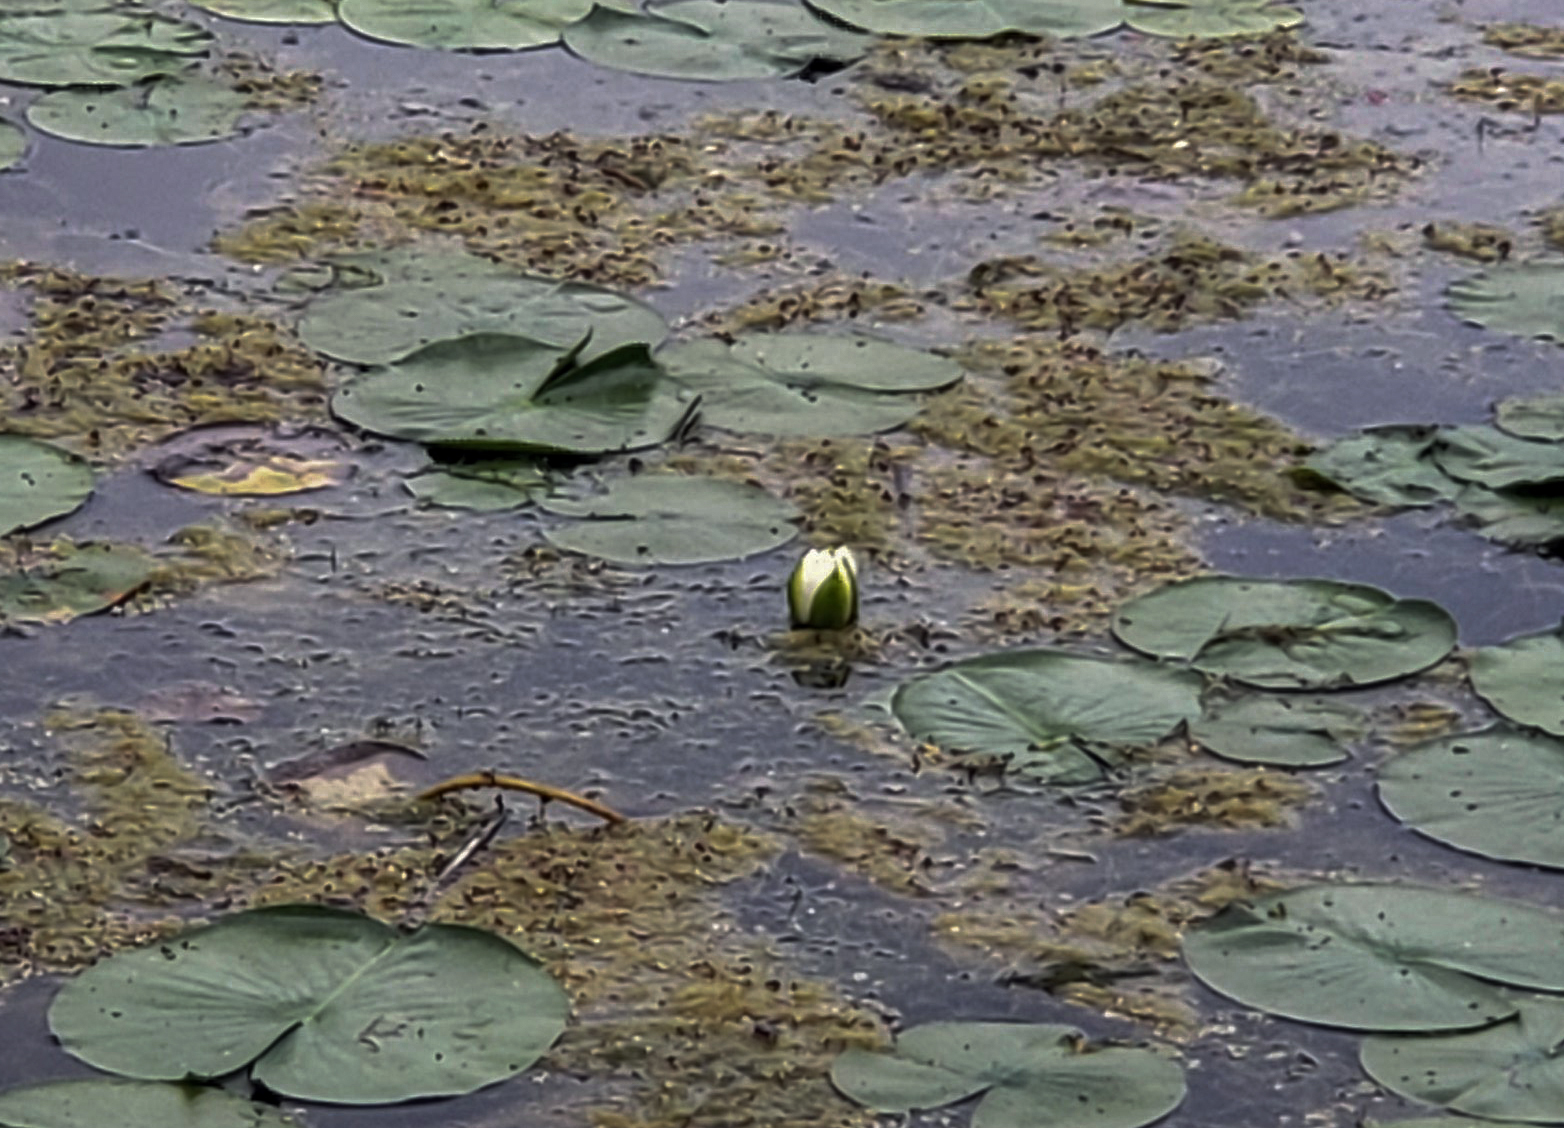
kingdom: Plantae
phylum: Tracheophyta
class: Magnoliopsida
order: Nymphaeales
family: Nymphaeaceae
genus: Nymphaea
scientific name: Nymphaea odorata
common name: Fragrant water-lily
